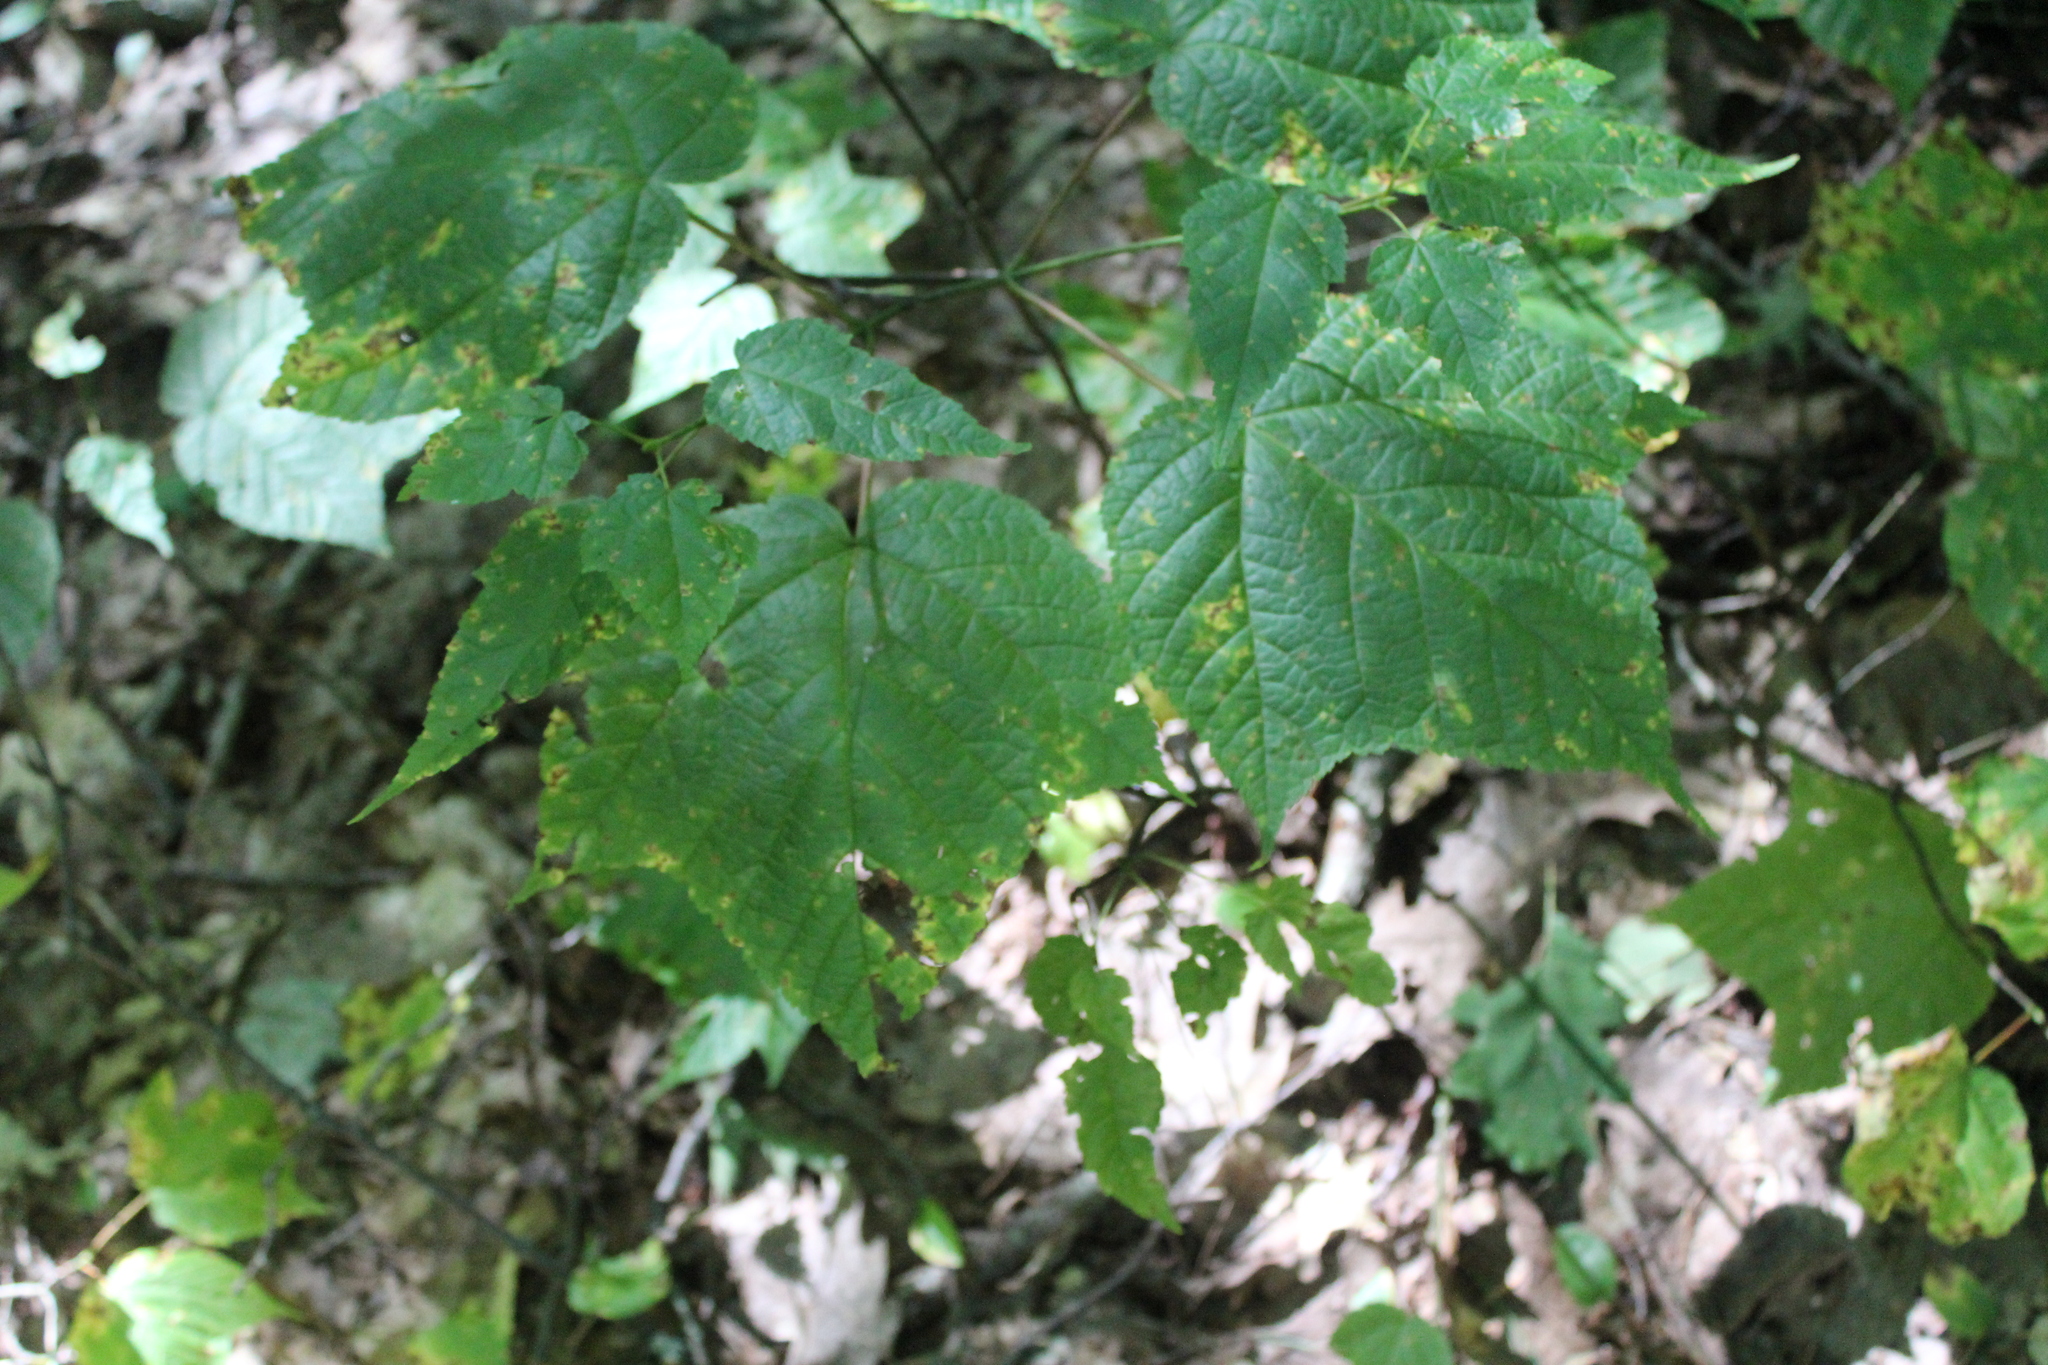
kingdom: Plantae
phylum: Tracheophyta
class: Magnoliopsida
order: Sapindales
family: Sapindaceae
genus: Acer
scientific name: Acer pensylvanicum
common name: Moosewood
